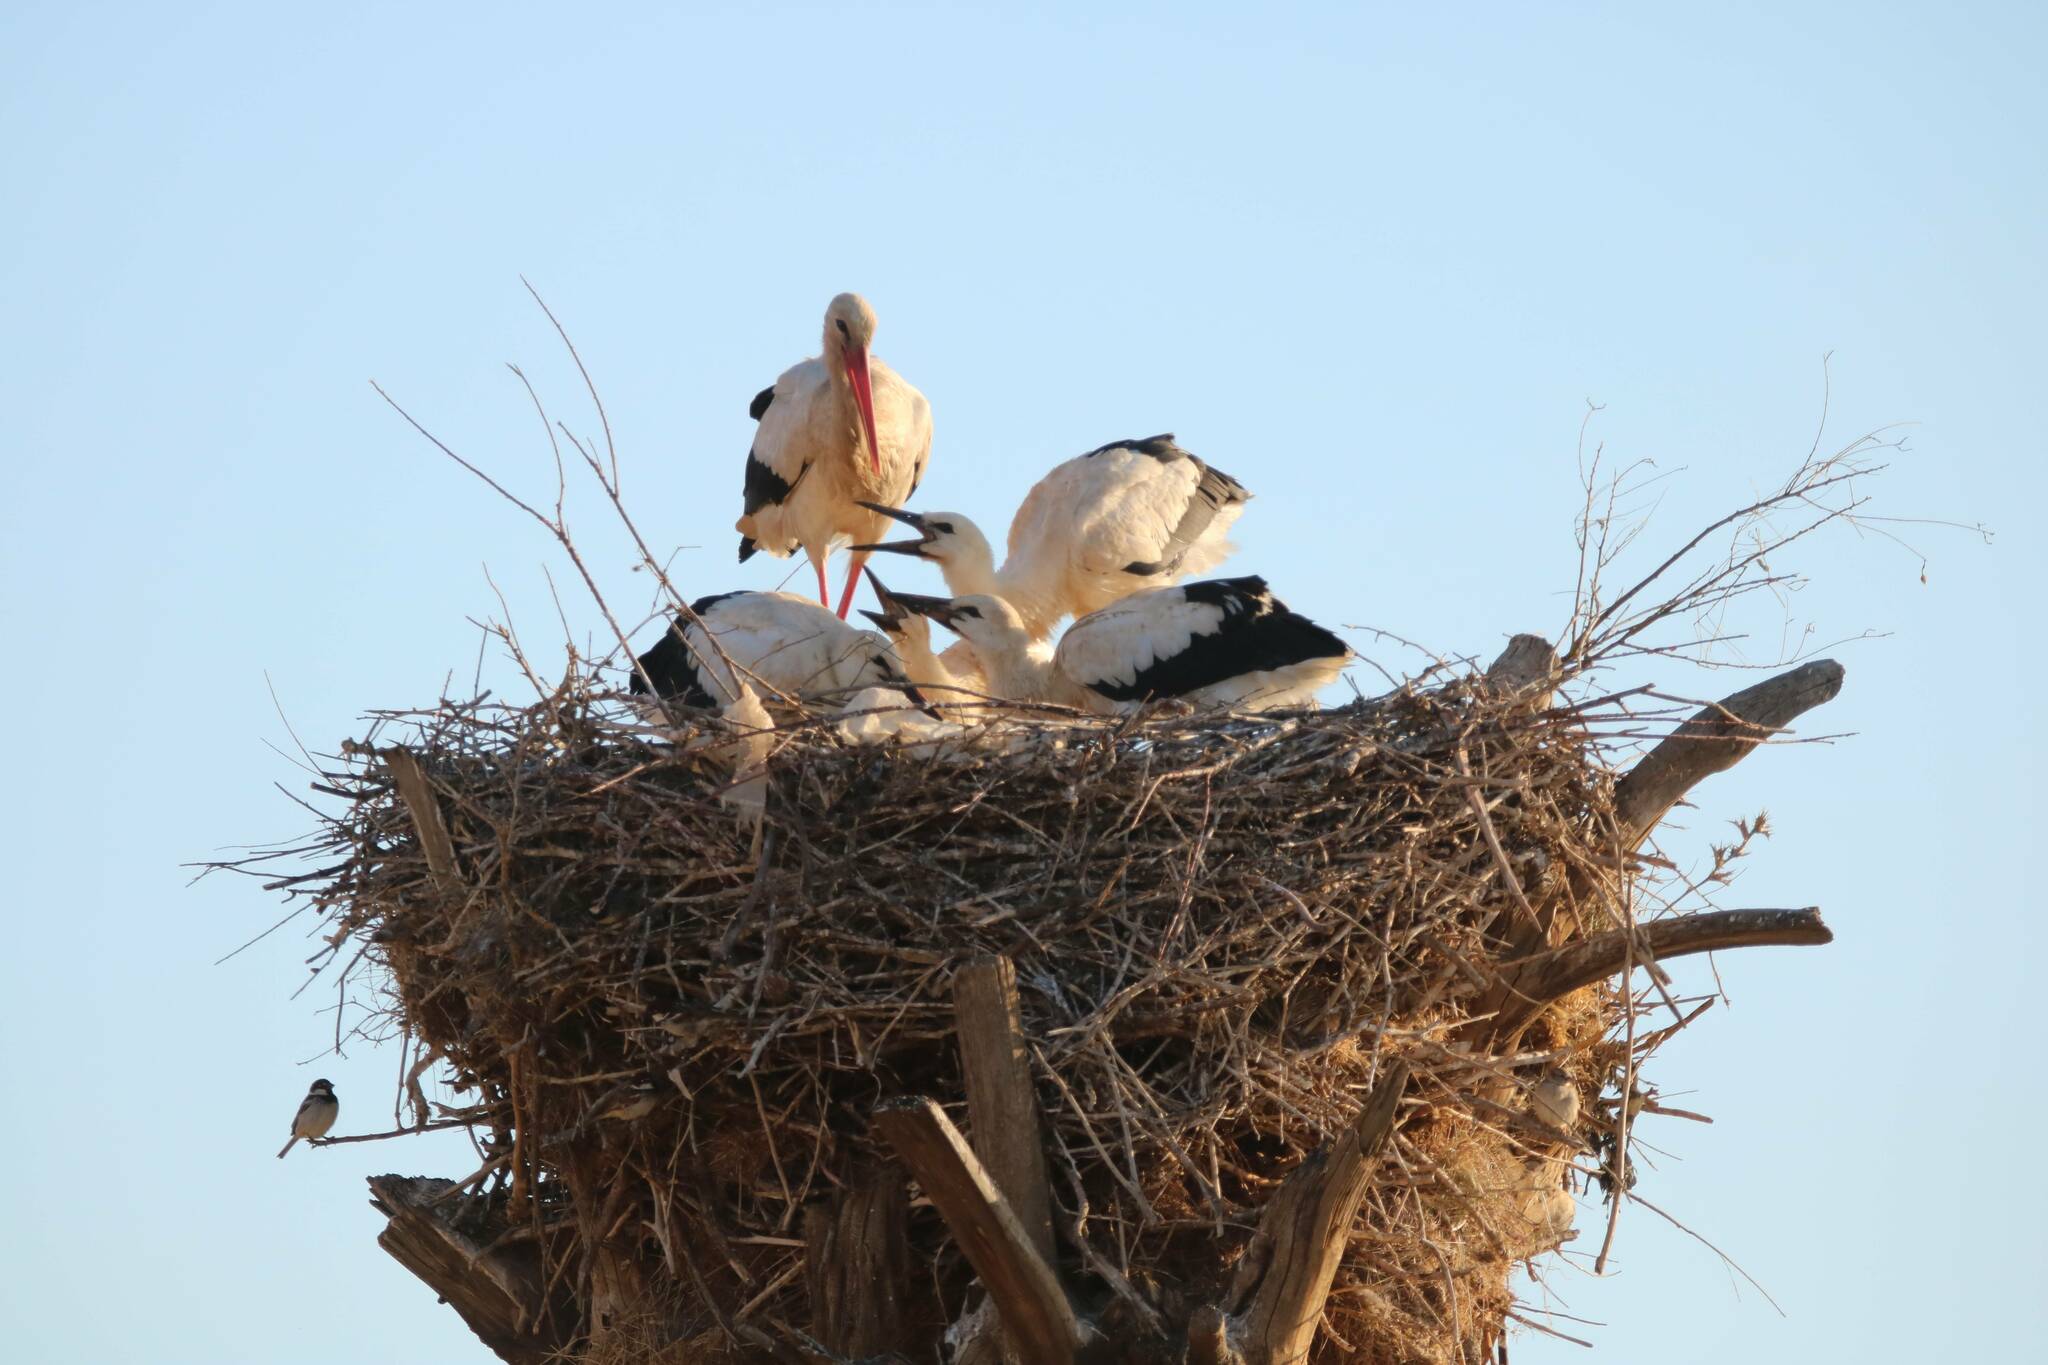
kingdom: Animalia
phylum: Chordata
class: Aves
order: Ciconiiformes
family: Ciconiidae
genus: Ciconia
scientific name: Ciconia ciconia
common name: White stork
